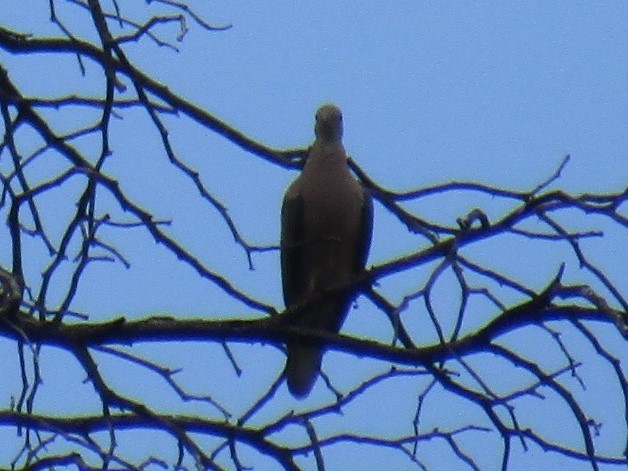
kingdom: Animalia
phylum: Chordata
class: Aves
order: Columbiformes
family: Columbidae
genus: Zenaida
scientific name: Zenaida auriculata
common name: Eared dove
